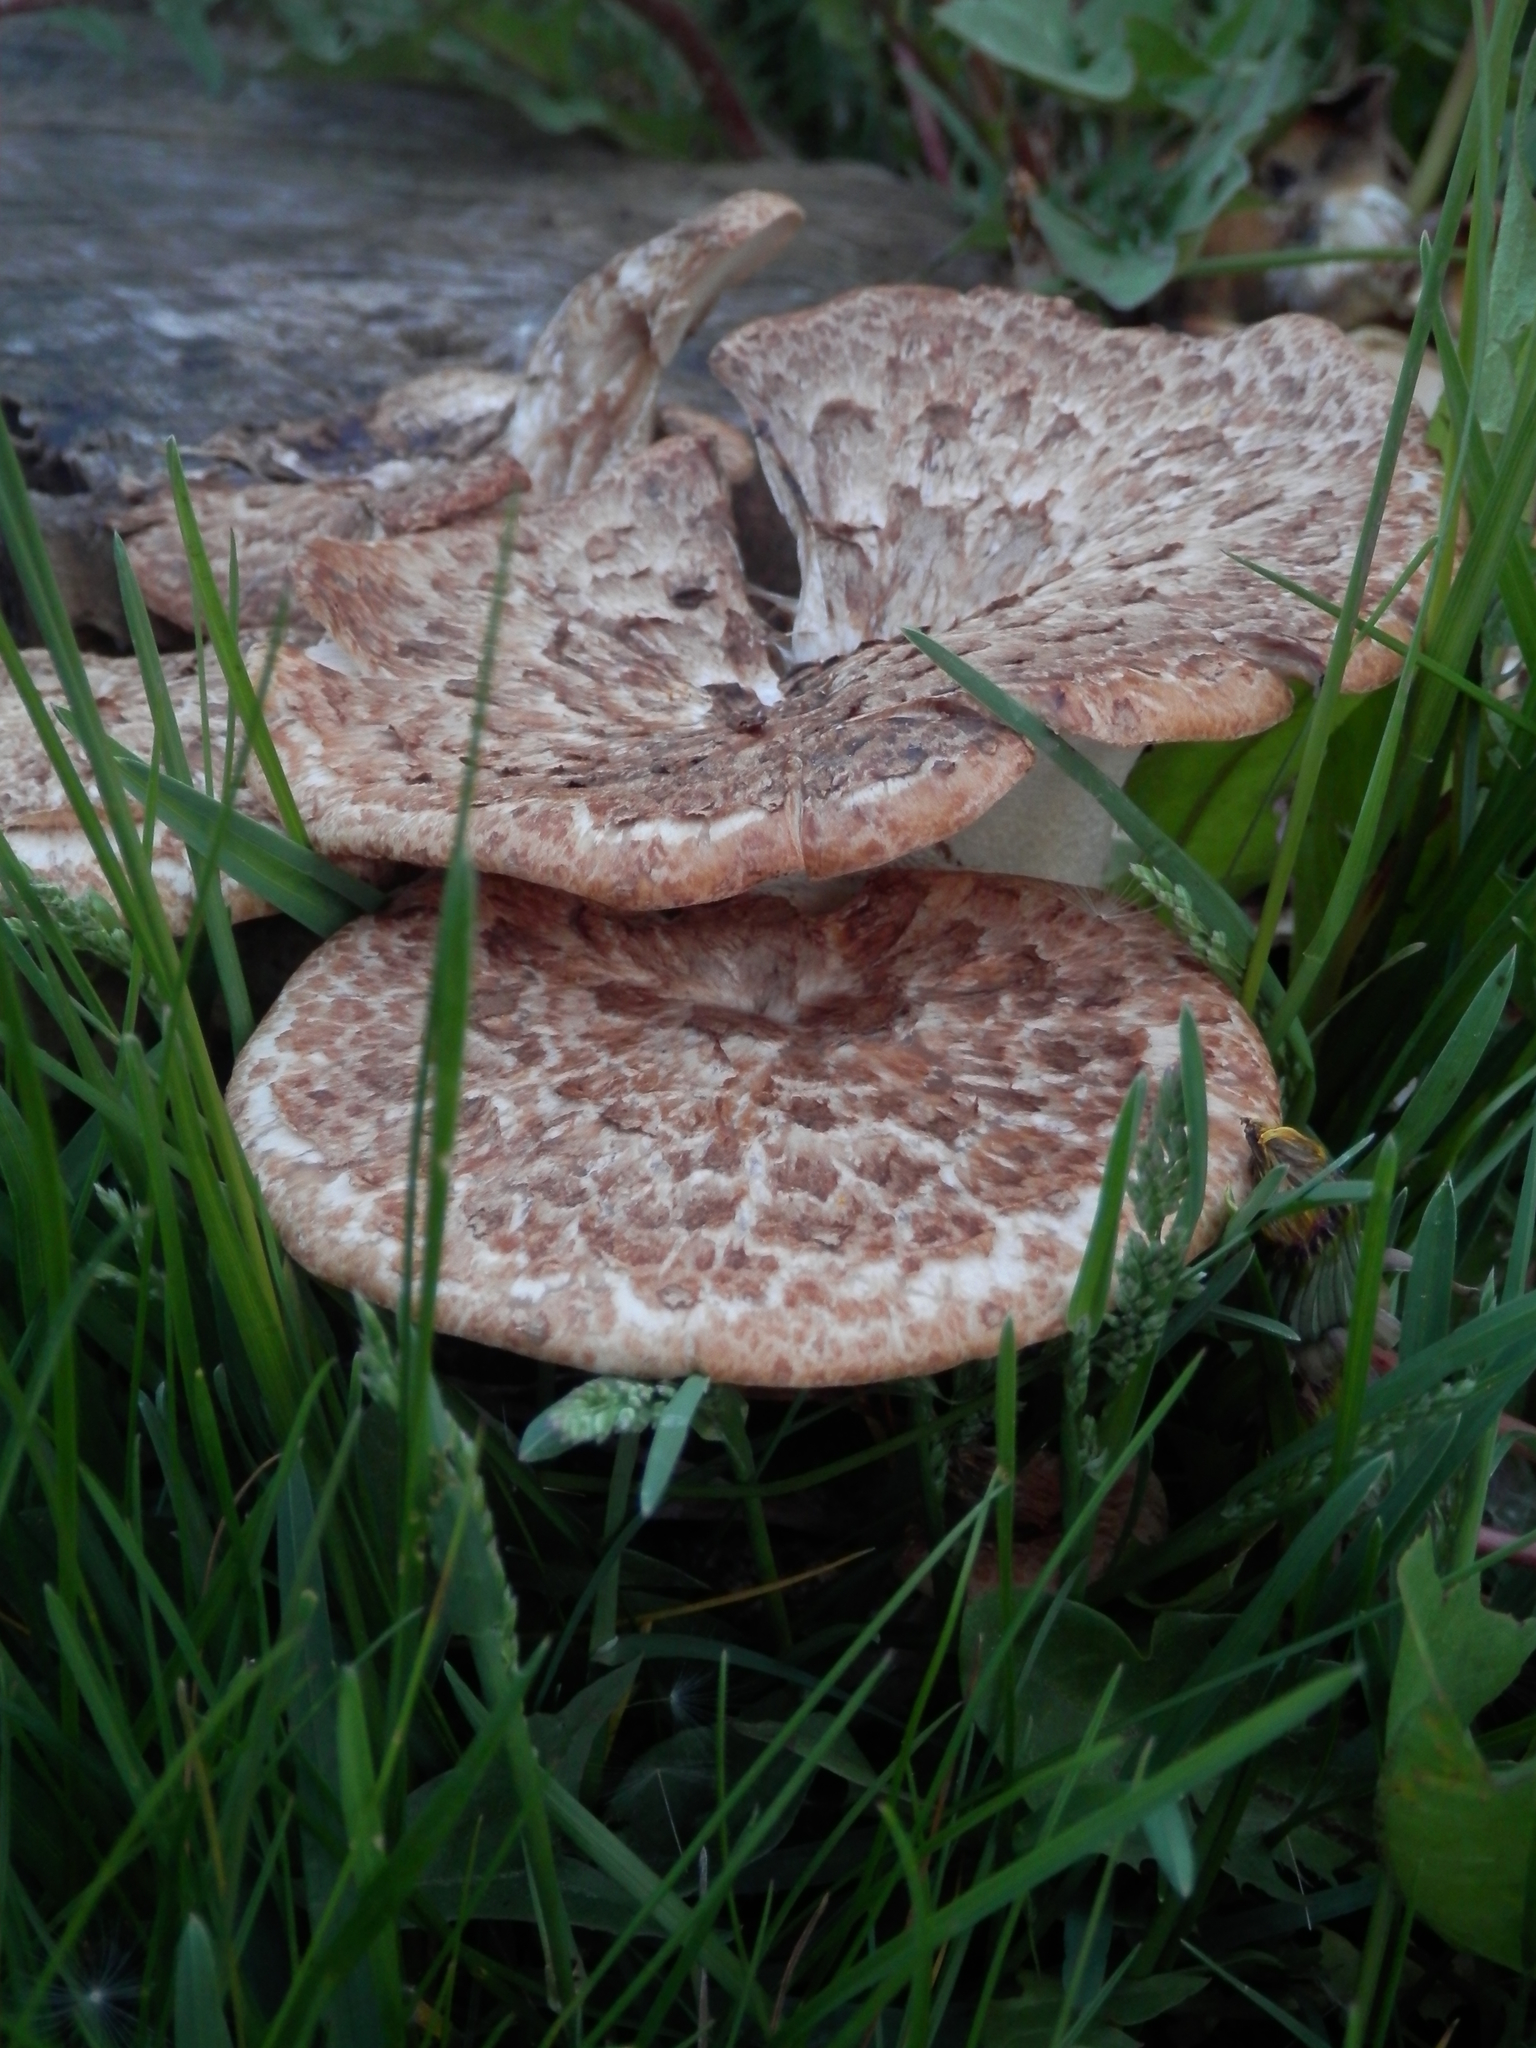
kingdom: Fungi
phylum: Basidiomycota
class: Agaricomycetes
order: Polyporales
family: Polyporaceae
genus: Cerioporus
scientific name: Cerioporus squamosus
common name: Dryad's saddle
